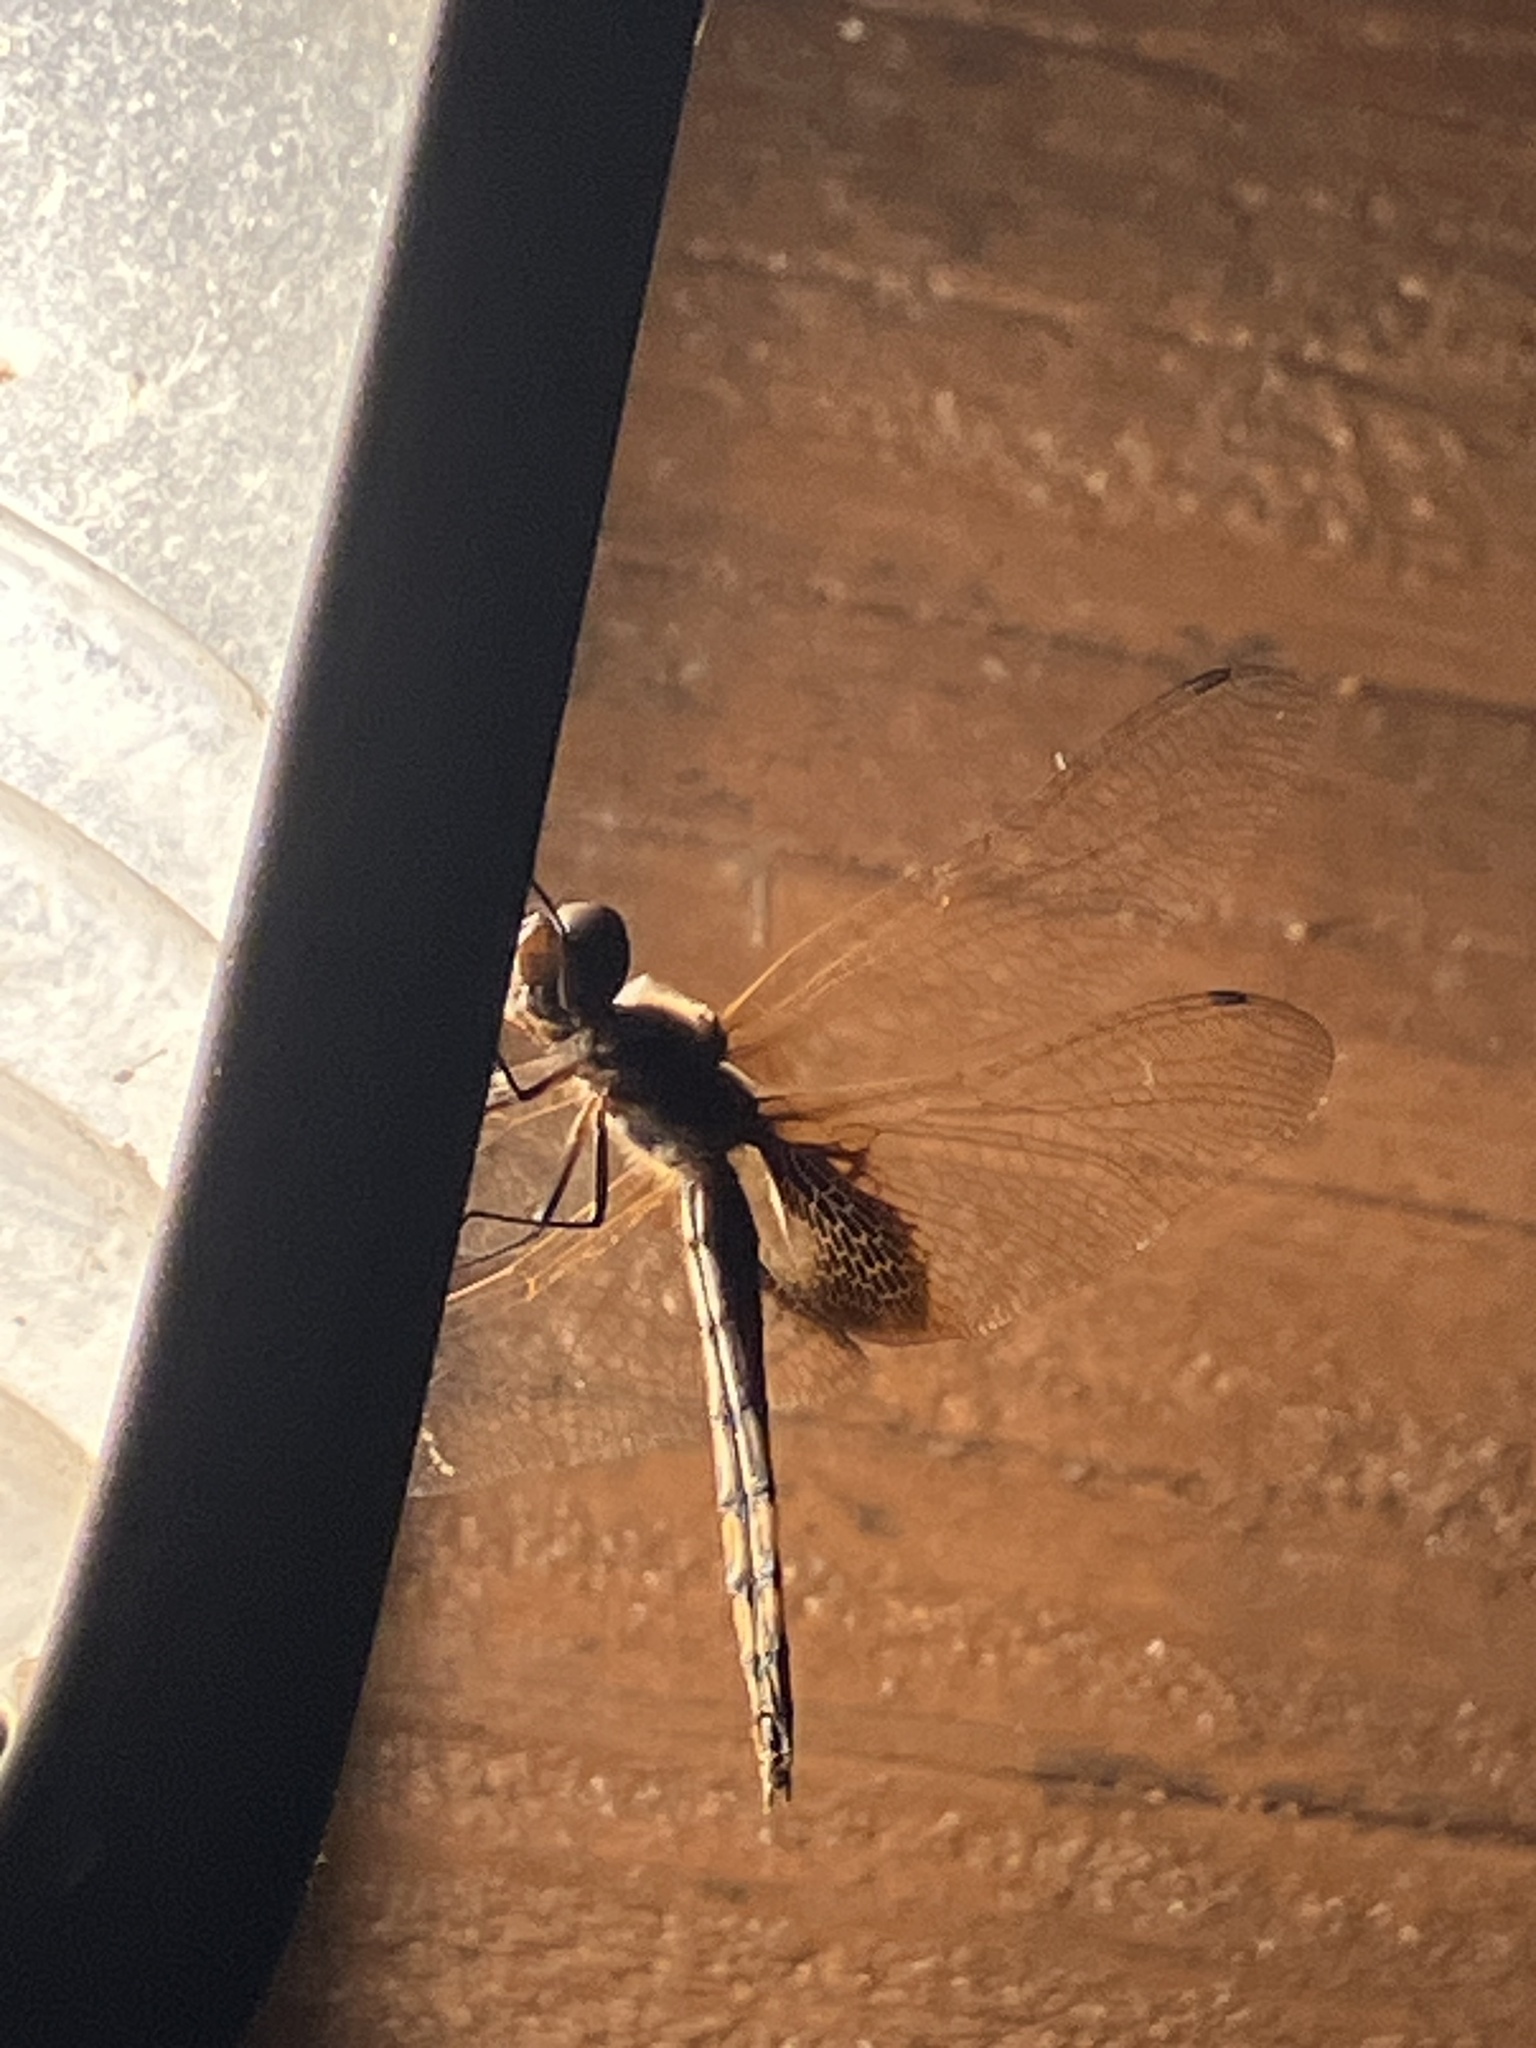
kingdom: Animalia
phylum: Arthropoda
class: Insecta
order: Odonata
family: Libellulidae
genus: Miathyria
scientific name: Miathyria marcella
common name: Hyacinth glider
